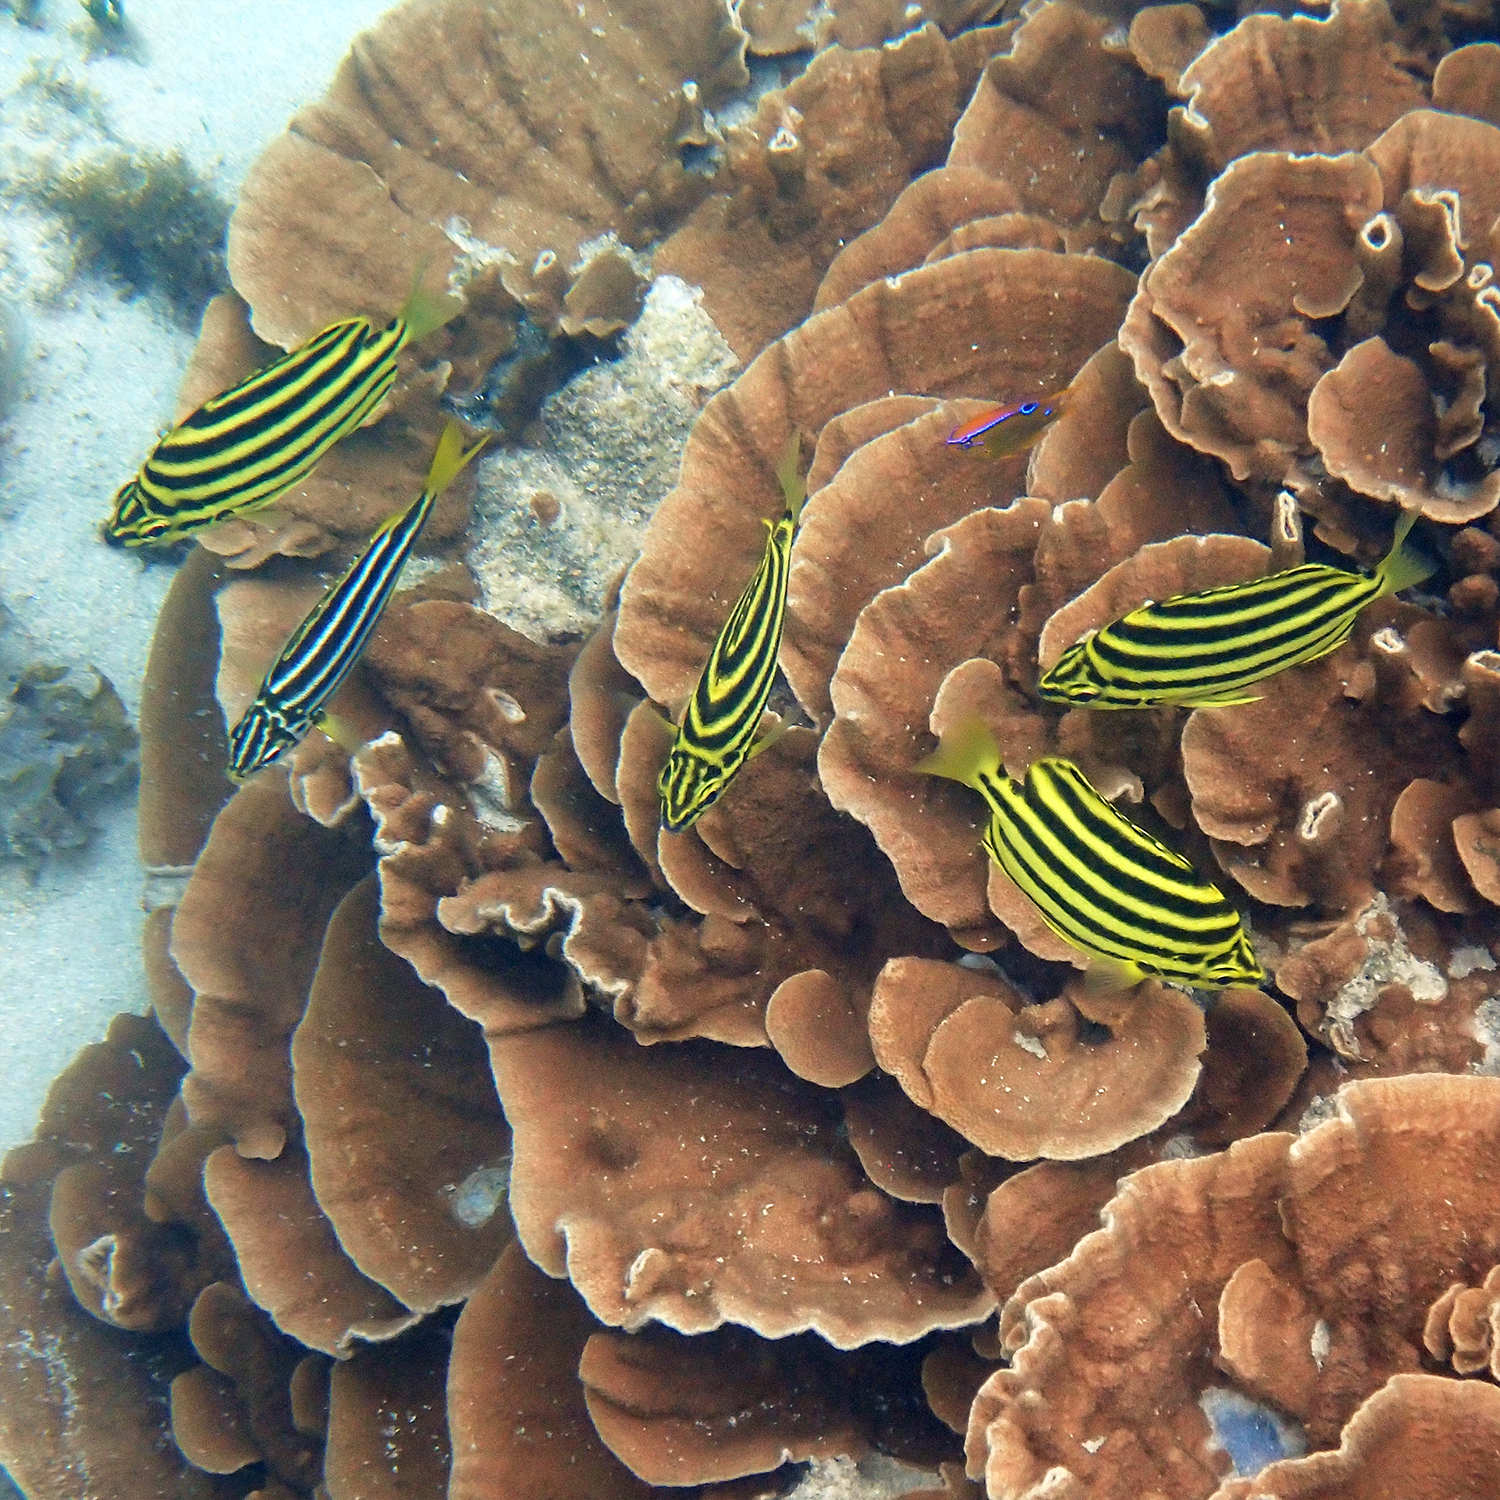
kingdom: Animalia
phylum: Chordata
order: Perciformes
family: Kyphosidae
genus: Atypichthys
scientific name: Atypichthys latus
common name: Mado
